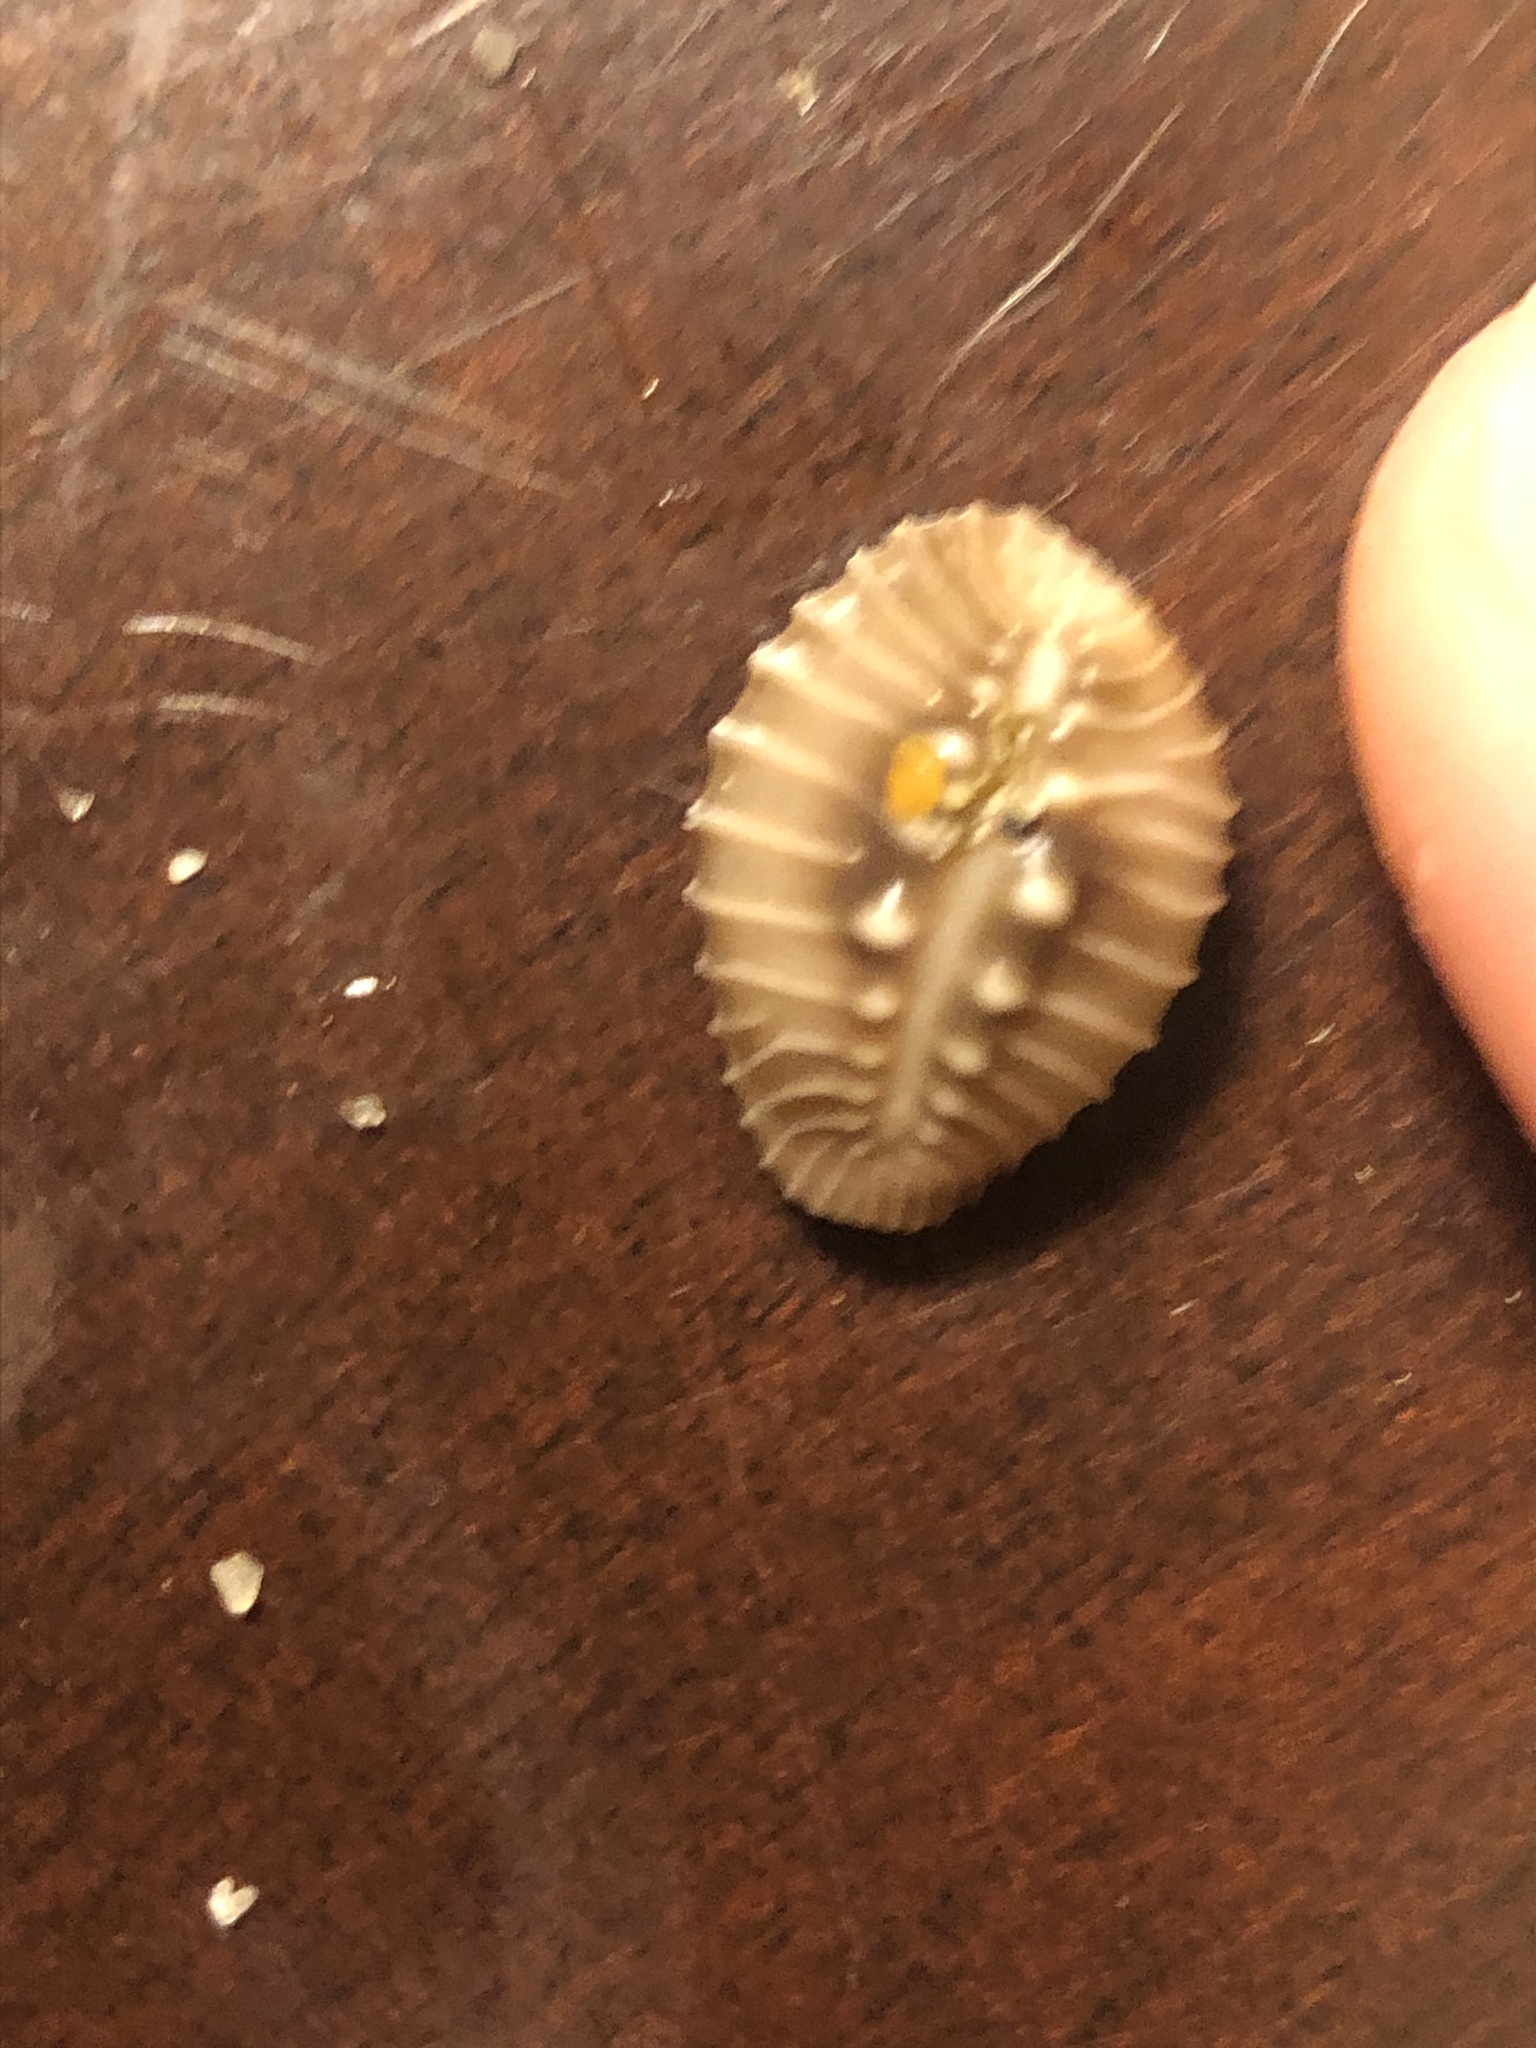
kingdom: Animalia
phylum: Mollusca
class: Gastropoda
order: Littorinimorpha
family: Triviidae
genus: Pusula
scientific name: Pusula solandri
